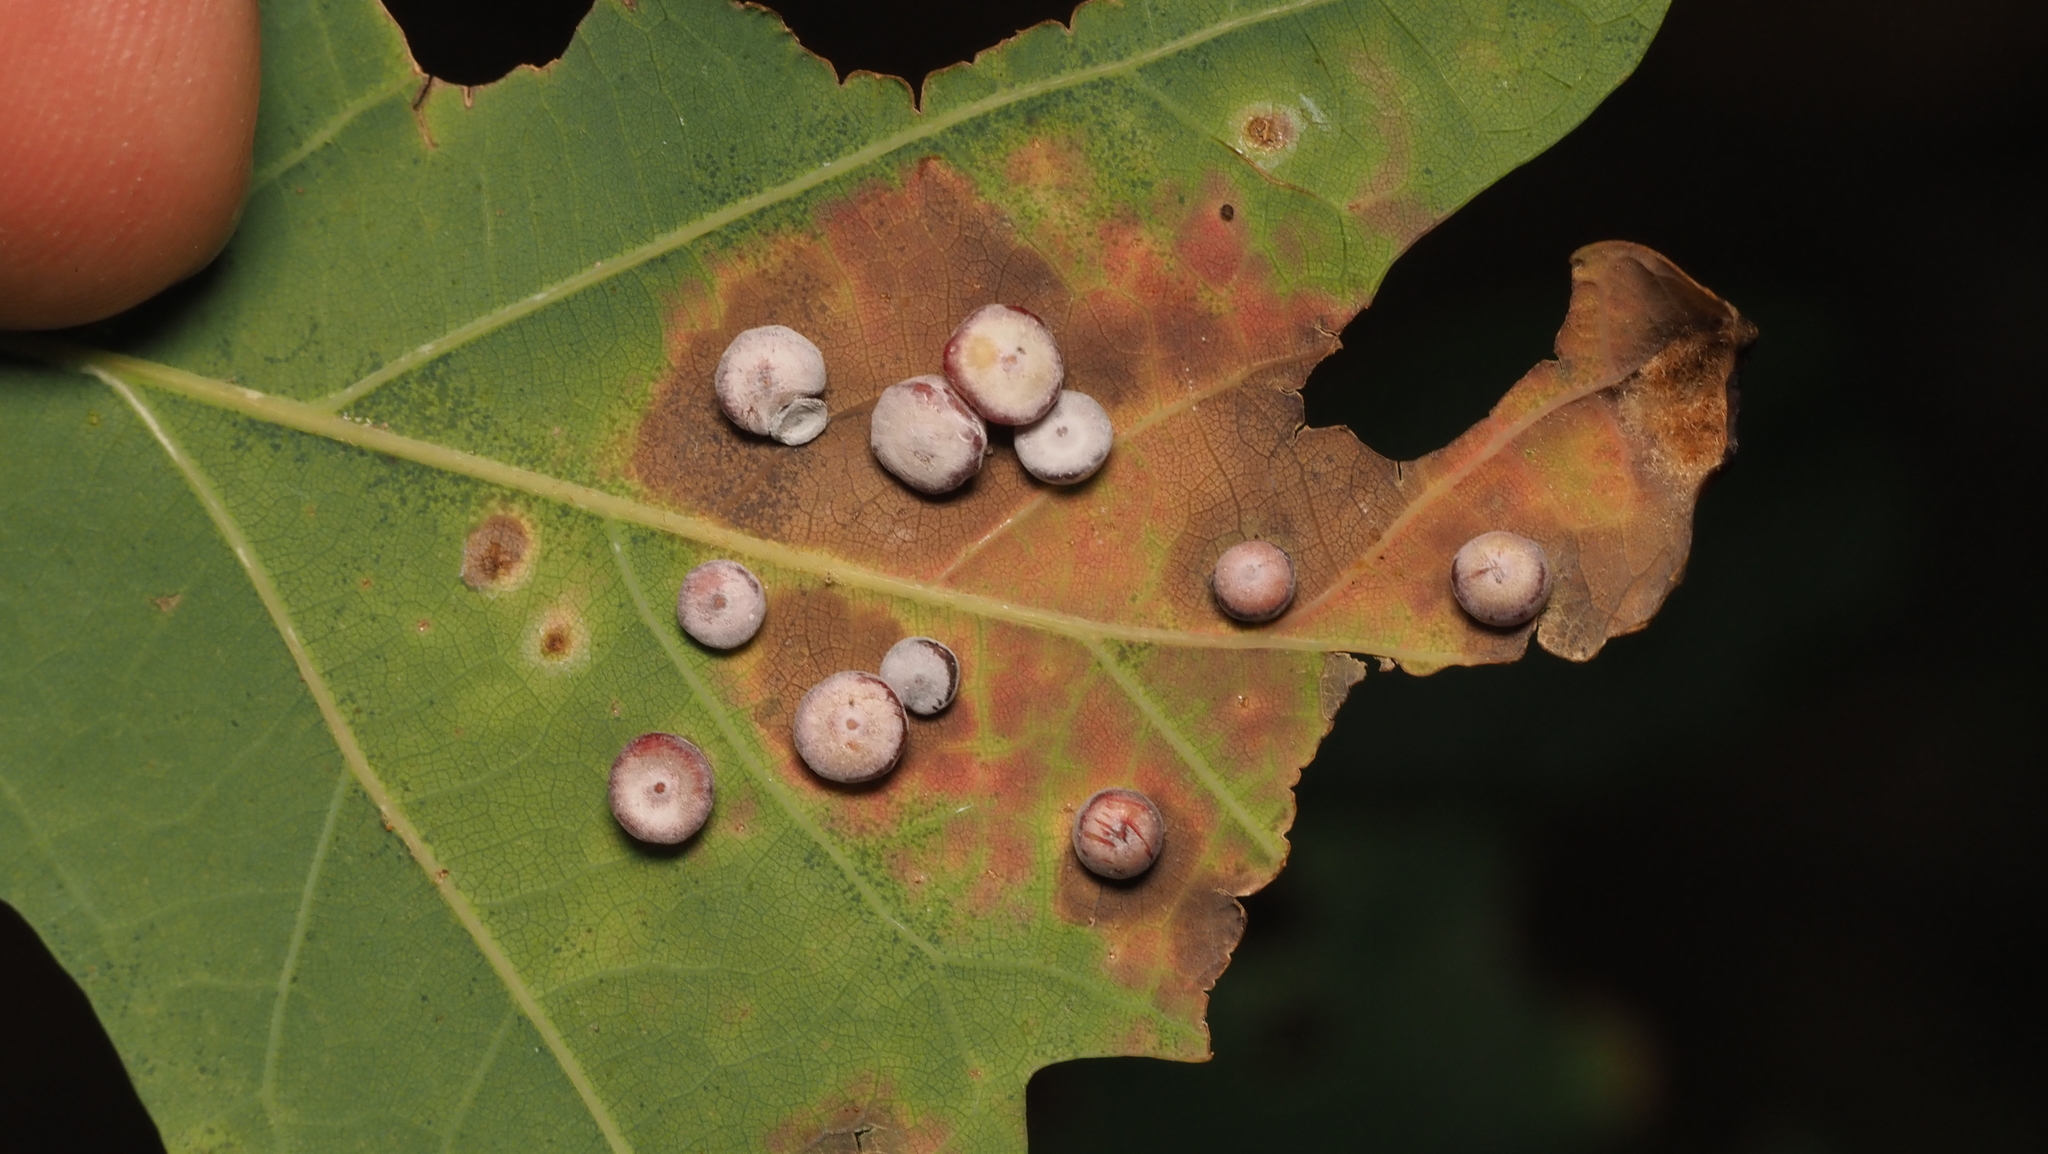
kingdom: Animalia
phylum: Arthropoda
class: Insecta
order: Hymenoptera
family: Cynipidae
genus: Phylloteras
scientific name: Phylloteras poculum
